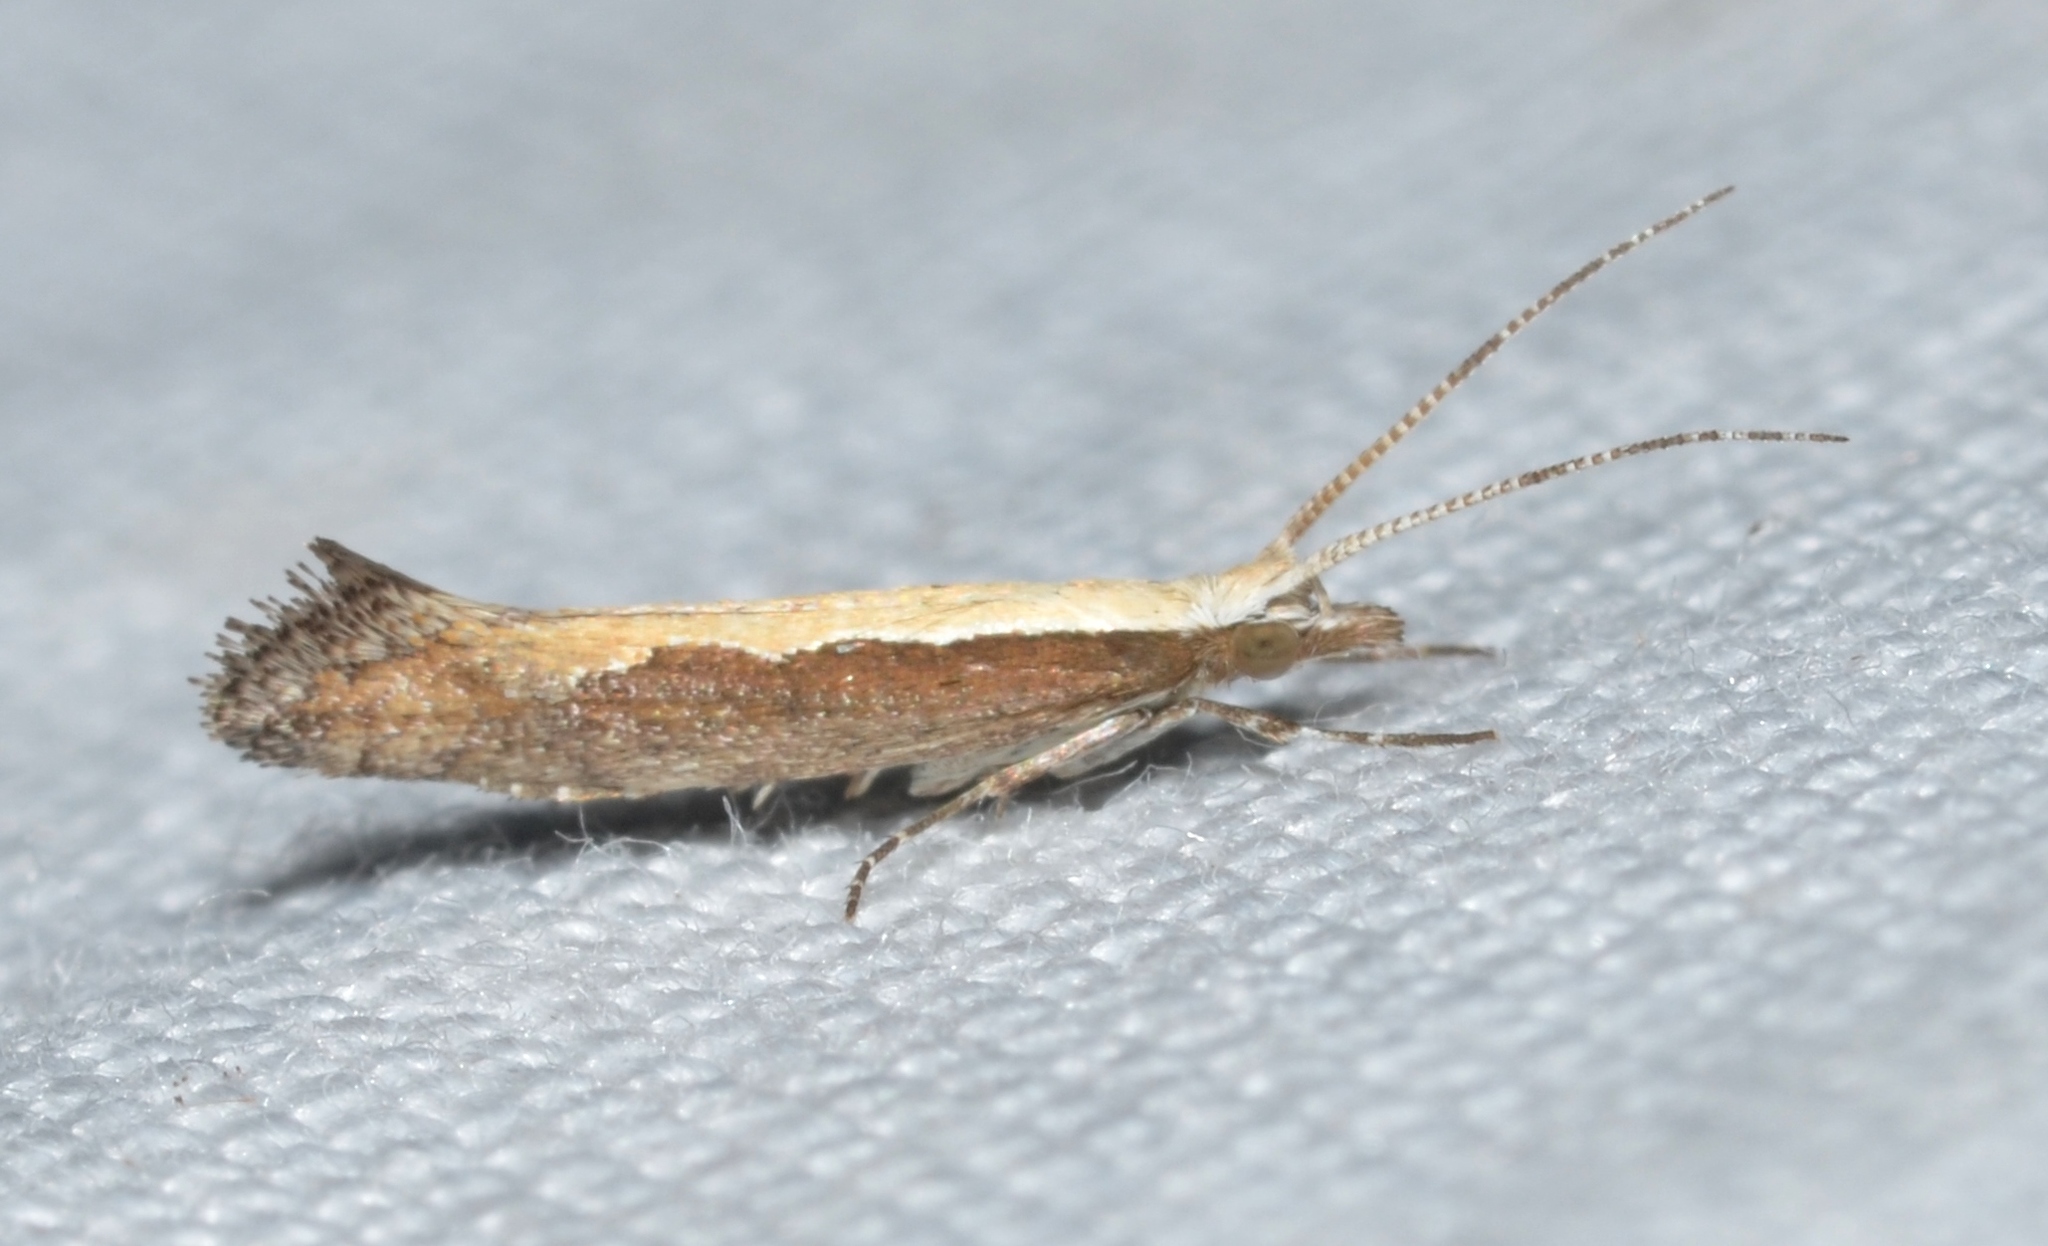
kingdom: Animalia
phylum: Arthropoda
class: Insecta
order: Lepidoptera
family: Plutellidae
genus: Plutella
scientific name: Plutella xylostella
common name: Diamond-back moth
